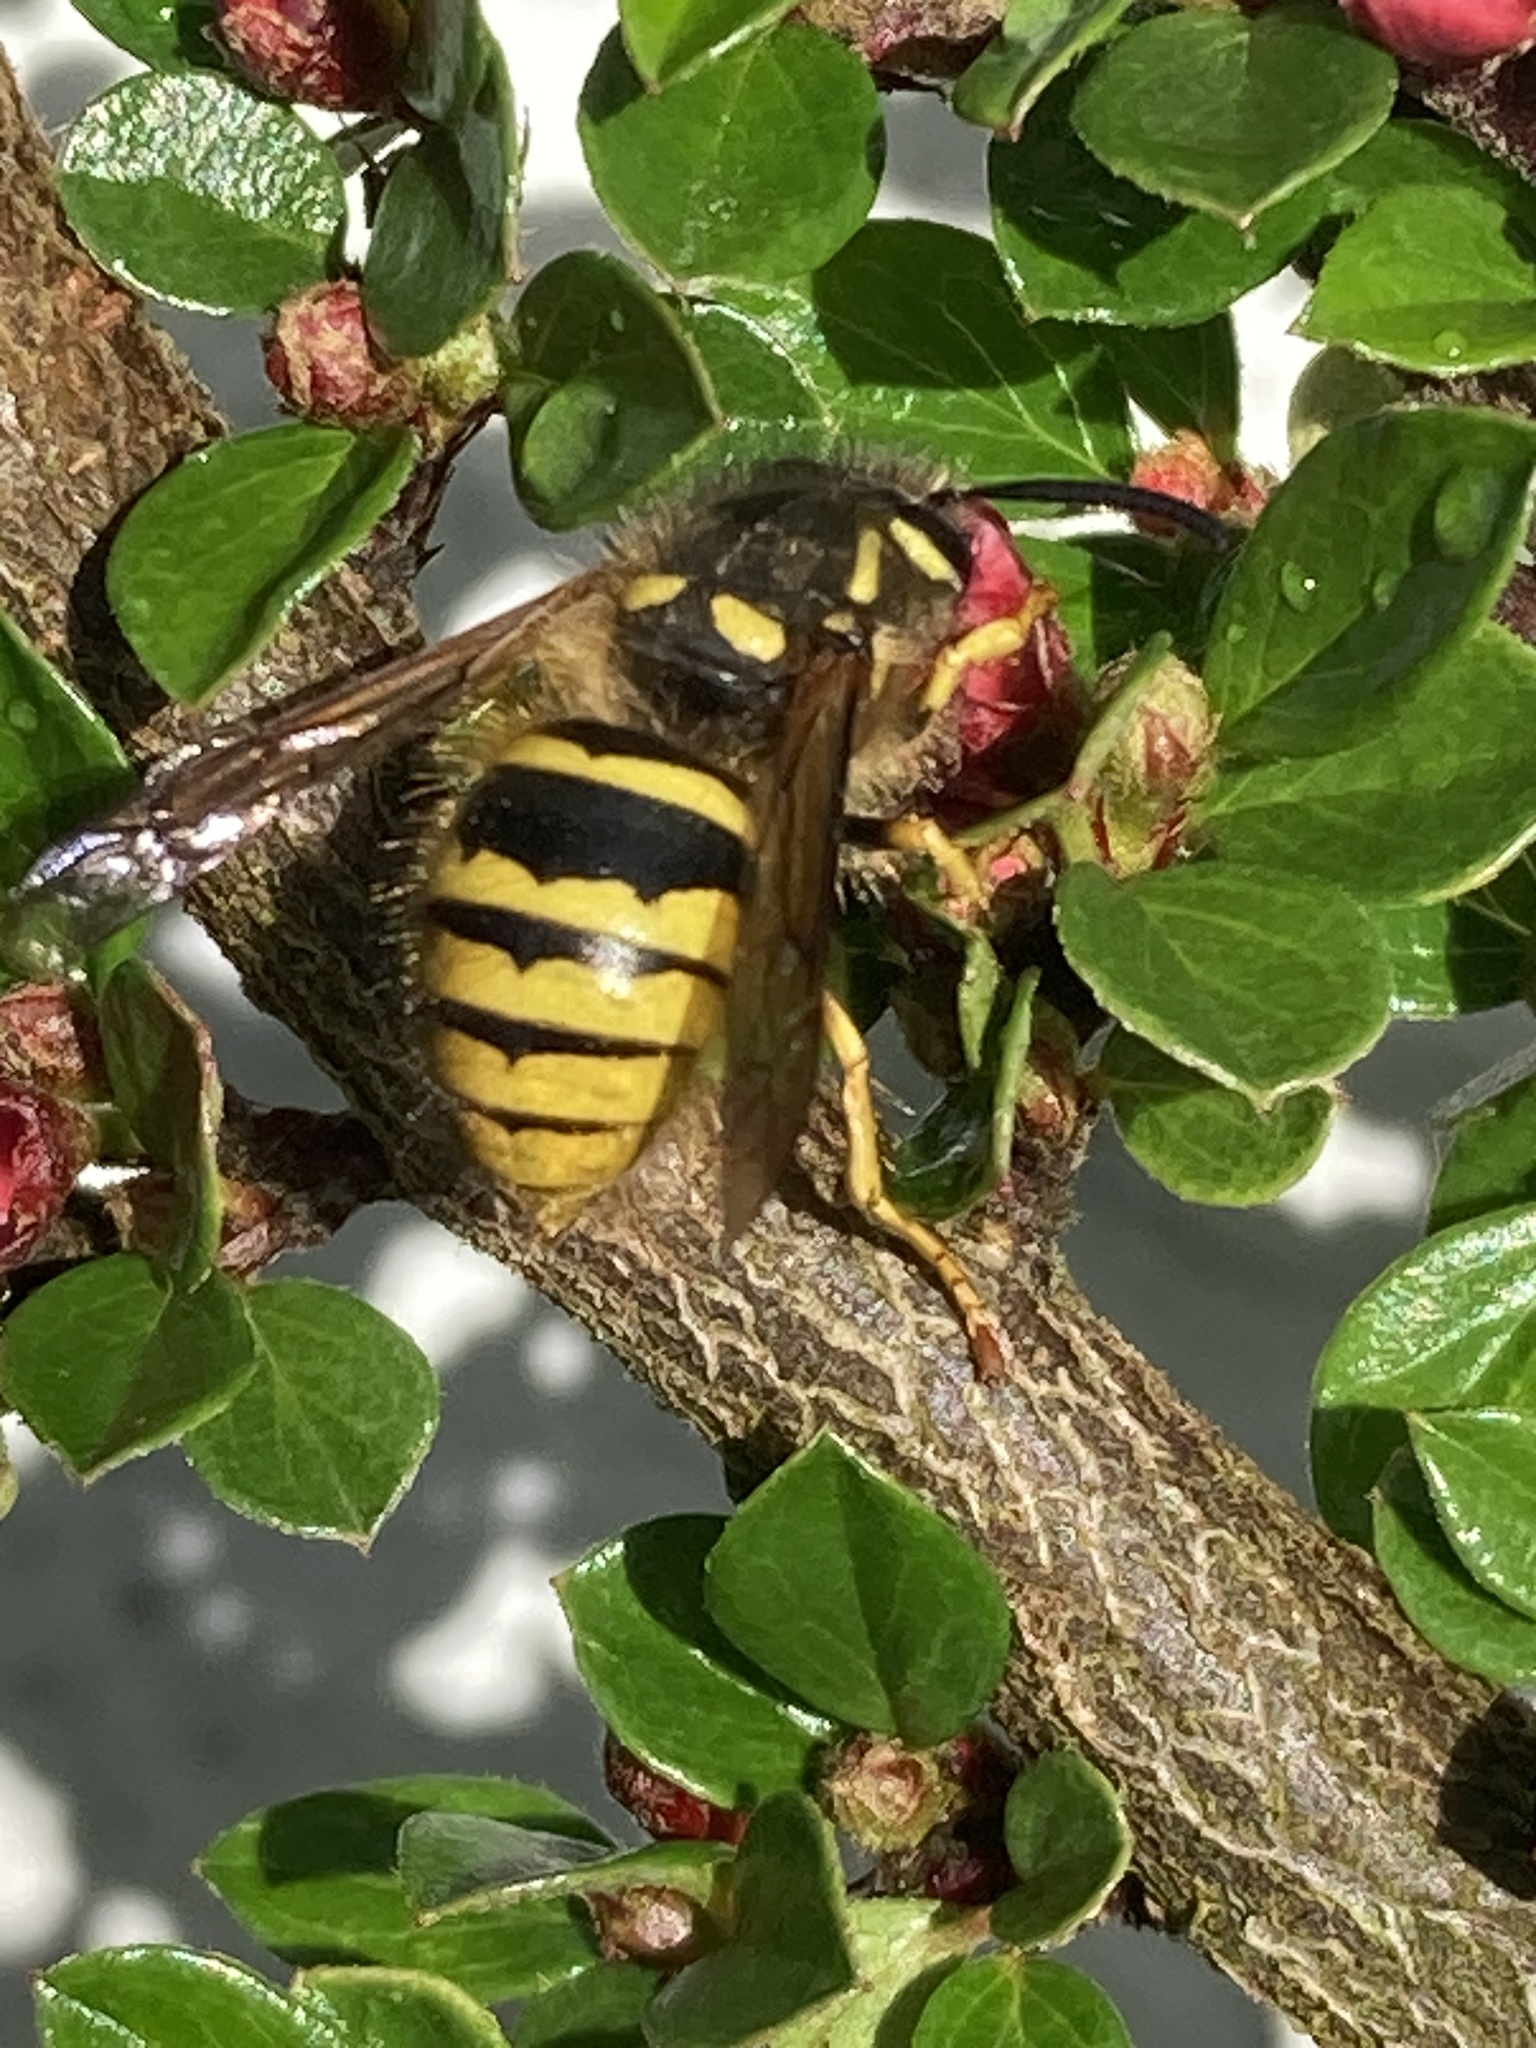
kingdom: Animalia
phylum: Arthropoda
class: Insecta
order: Hymenoptera
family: Vespidae
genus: Dolichovespula
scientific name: Dolichovespula sylvestris
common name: Tree wasp
